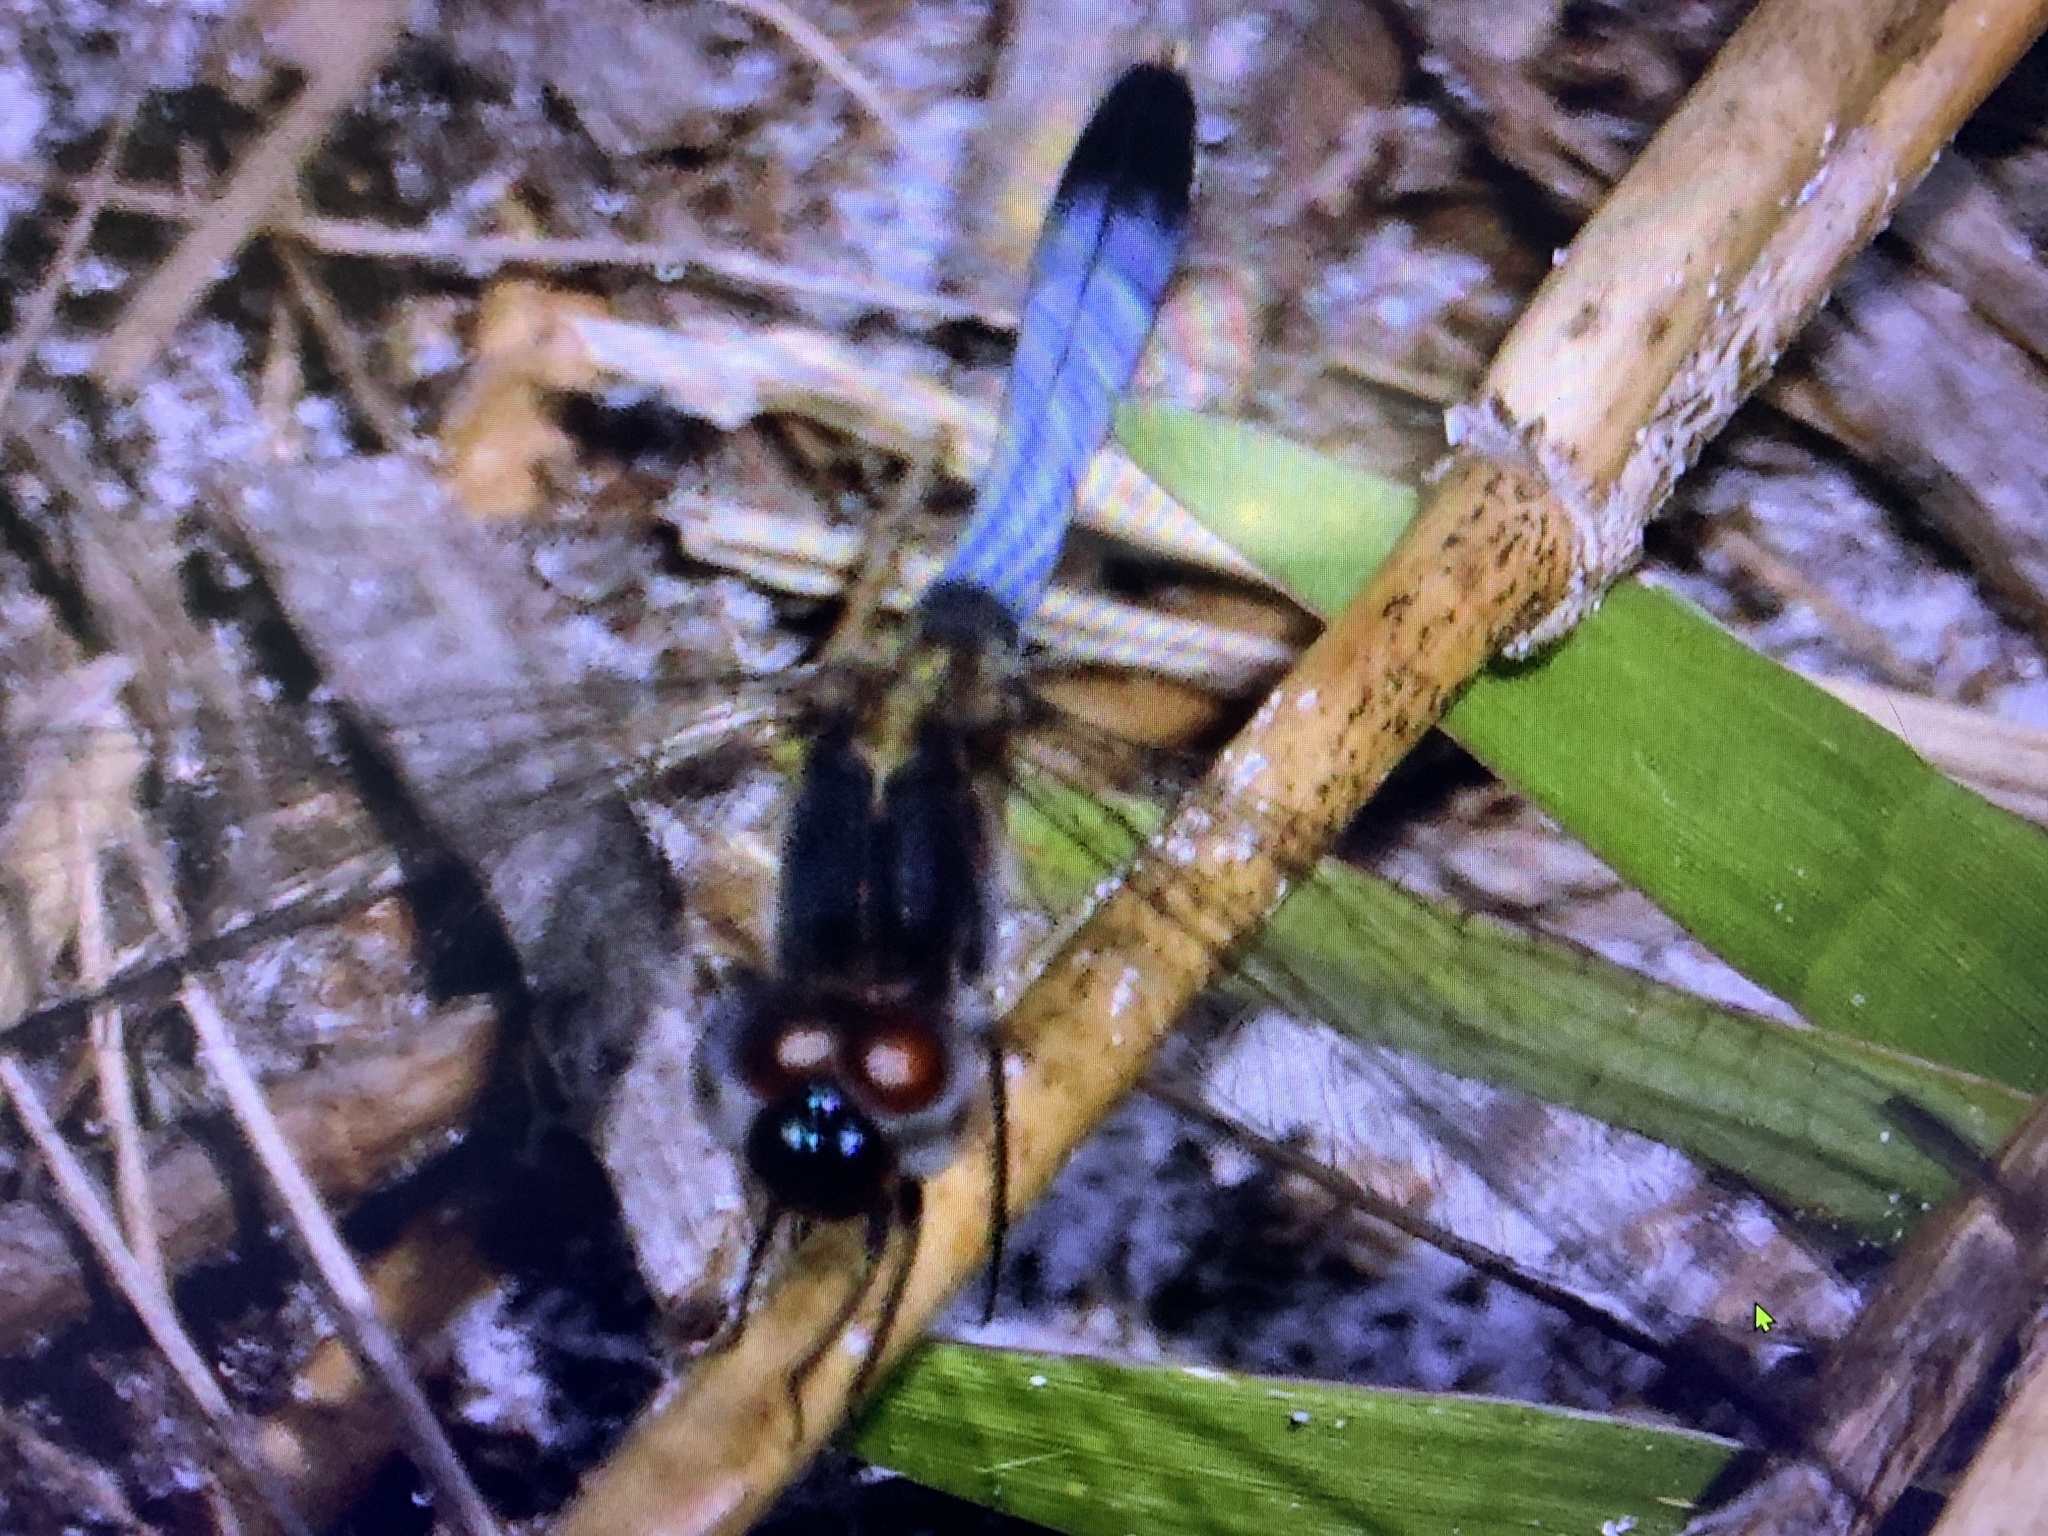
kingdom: Animalia
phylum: Arthropoda
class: Insecta
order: Odonata
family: Libellulidae
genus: Erythrodiplax
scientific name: Erythrodiplax minuscula
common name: Little blue dragonlet
